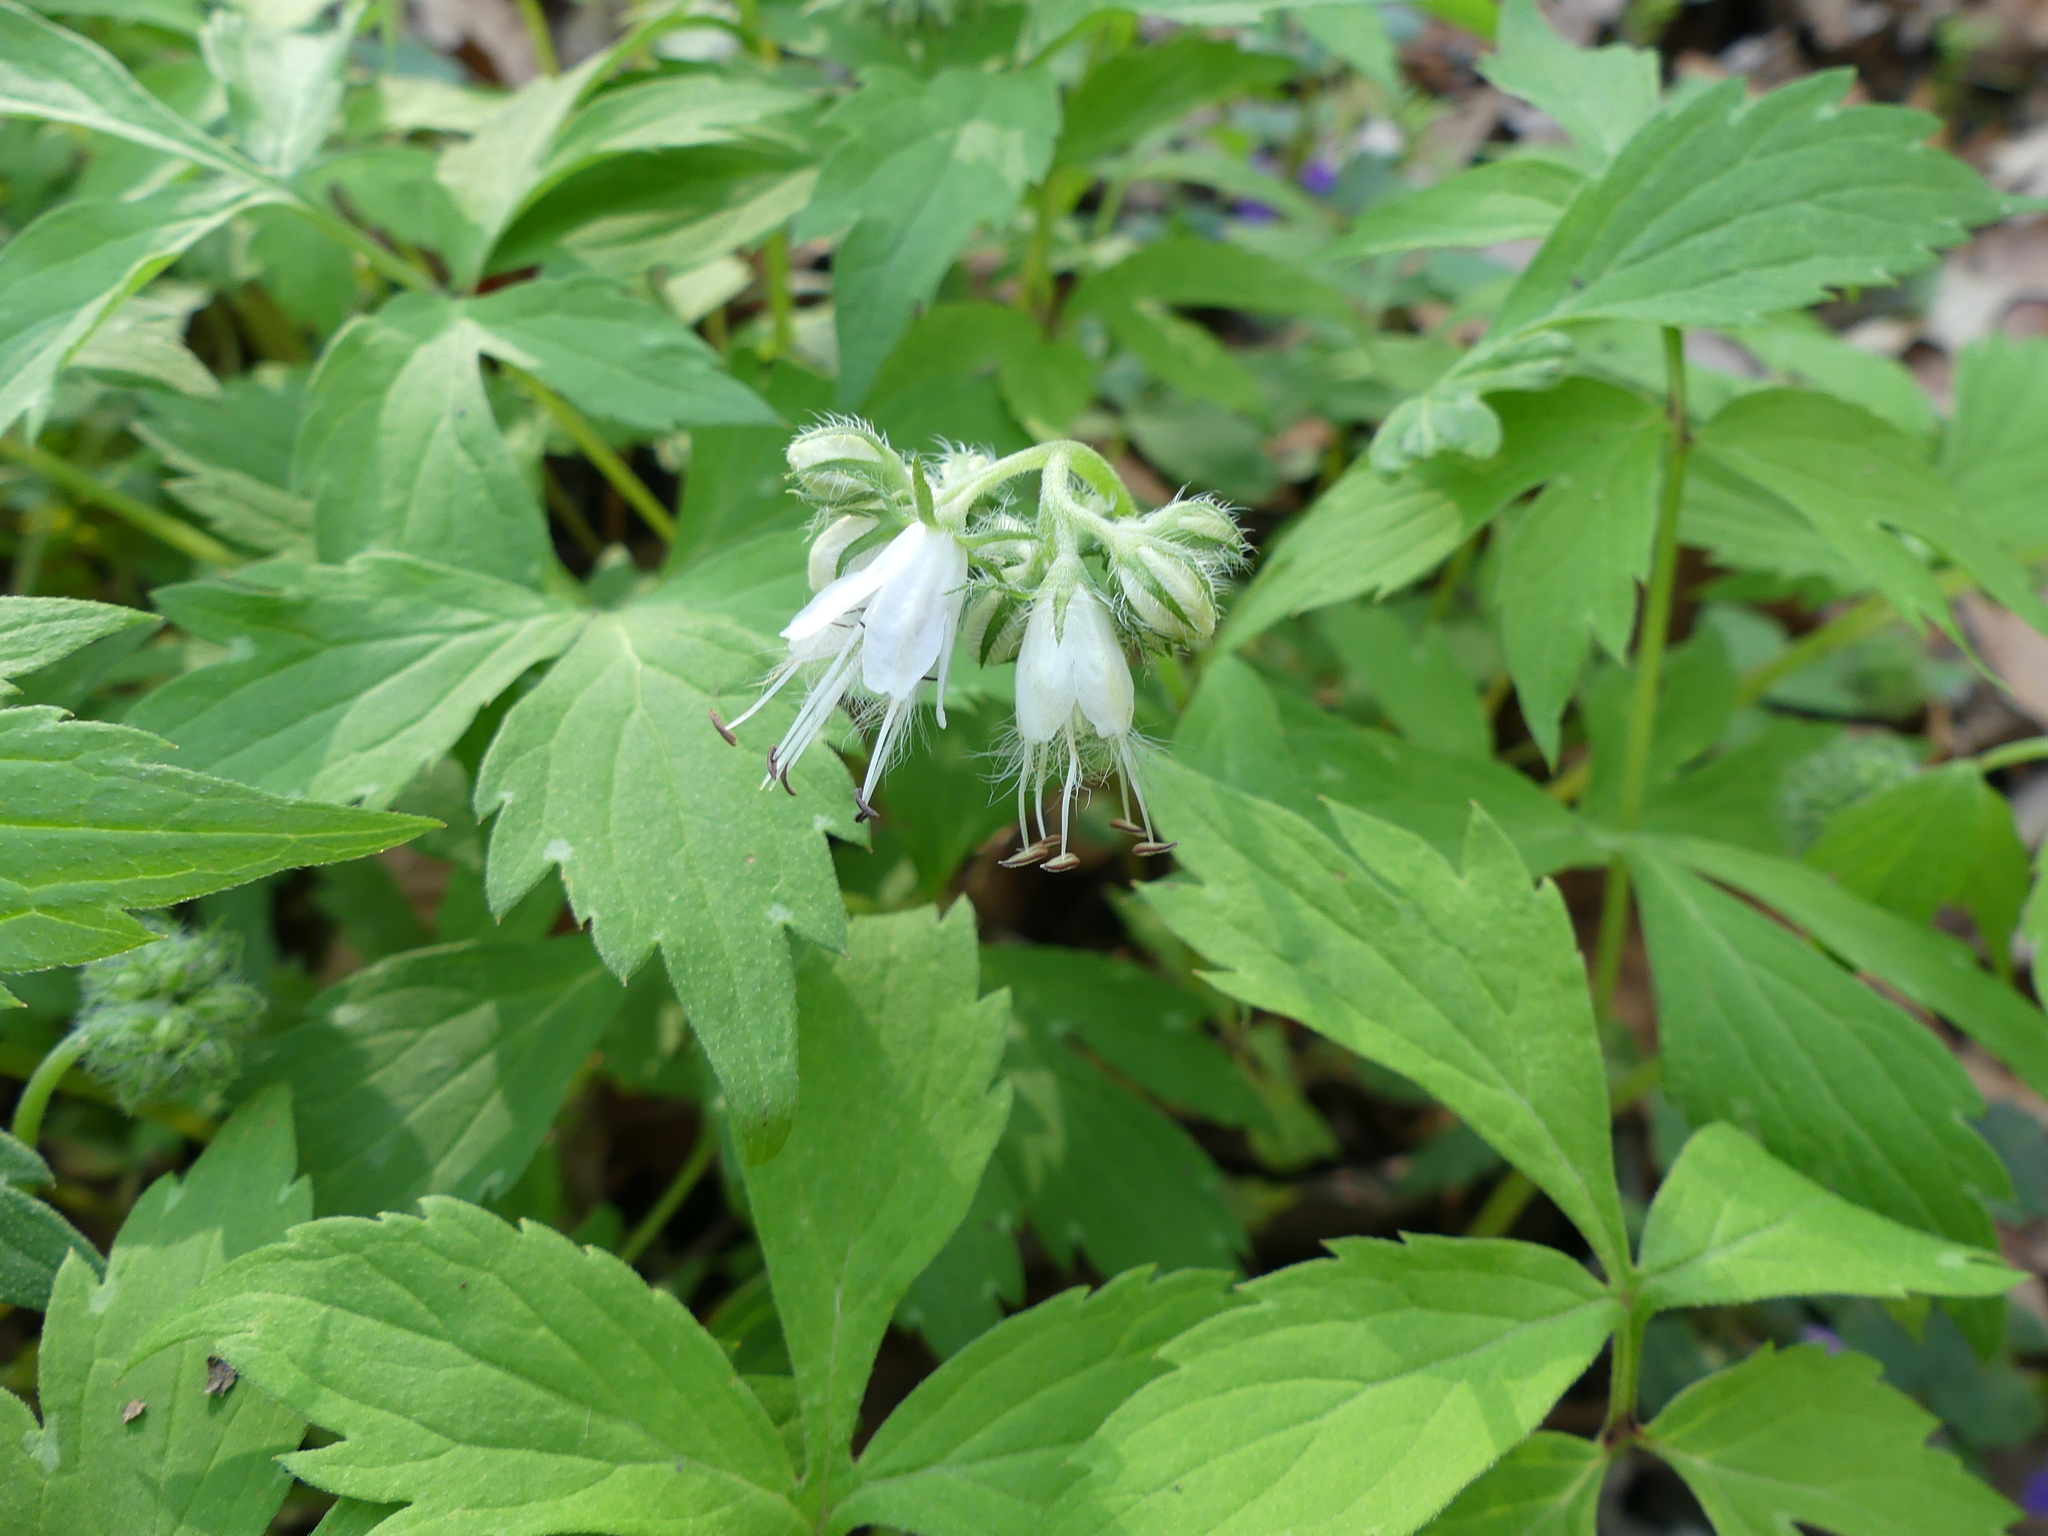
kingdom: Plantae
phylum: Tracheophyta
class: Magnoliopsida
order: Boraginales
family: Hydrophyllaceae
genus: Hydrophyllum
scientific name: Hydrophyllum virginianum
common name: Virginia waterleaf
